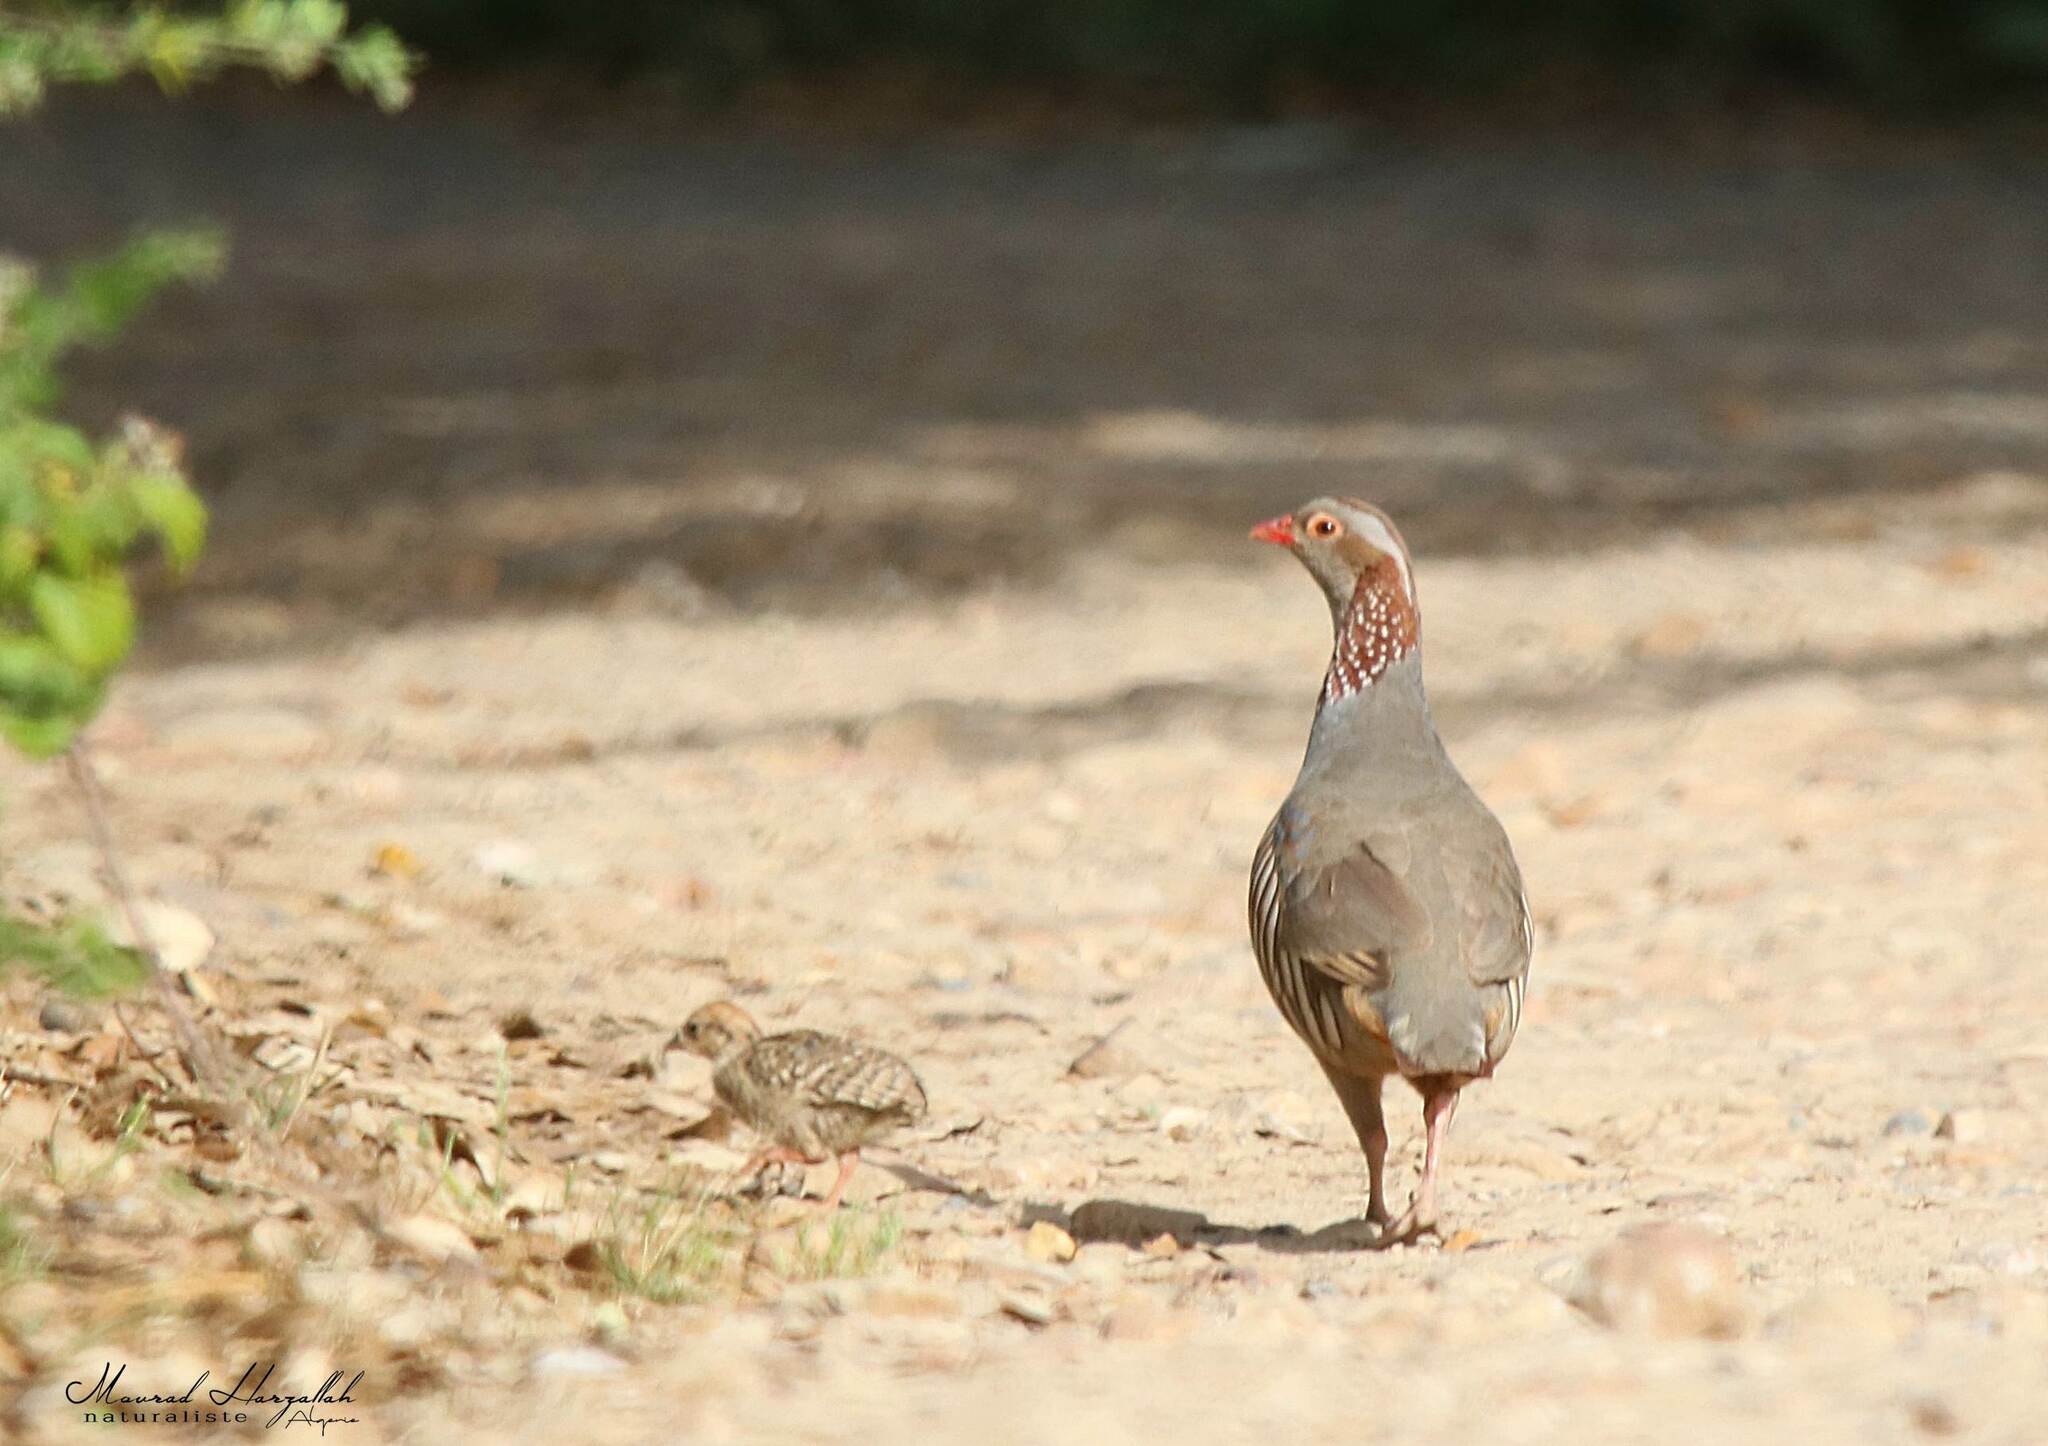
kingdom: Animalia
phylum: Chordata
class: Aves
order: Galliformes
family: Phasianidae
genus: Alectoris
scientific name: Alectoris barbara
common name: Barbary partridge
